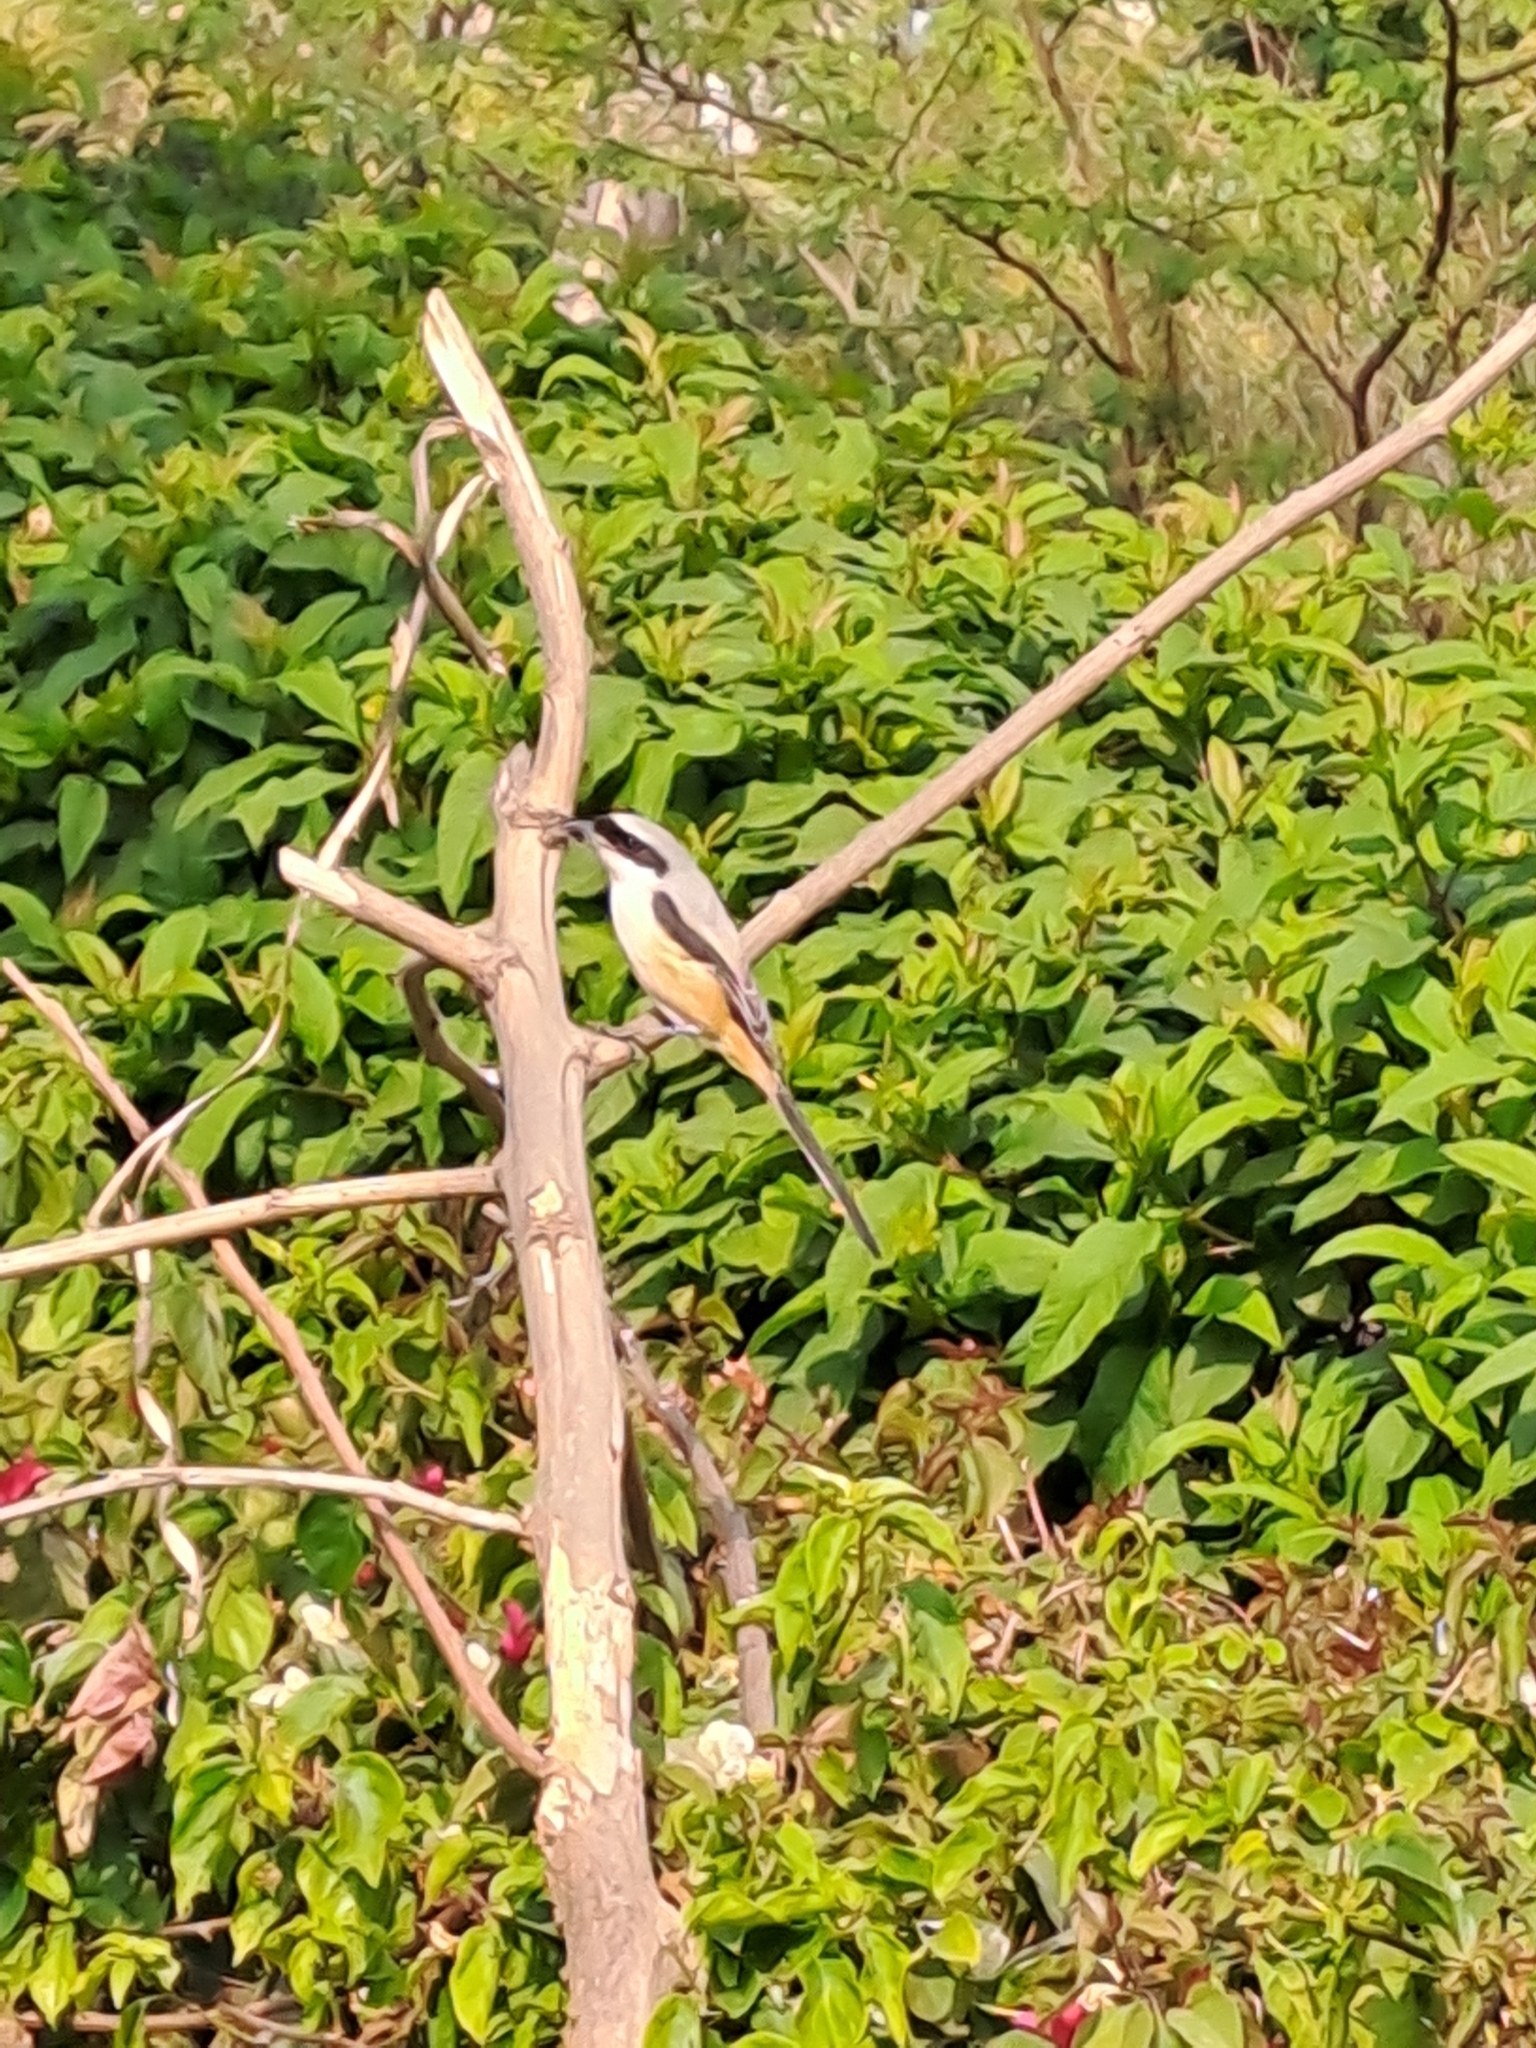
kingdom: Animalia
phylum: Chordata
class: Aves
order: Passeriformes
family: Laniidae
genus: Lanius
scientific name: Lanius schach
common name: Long-tailed shrike
